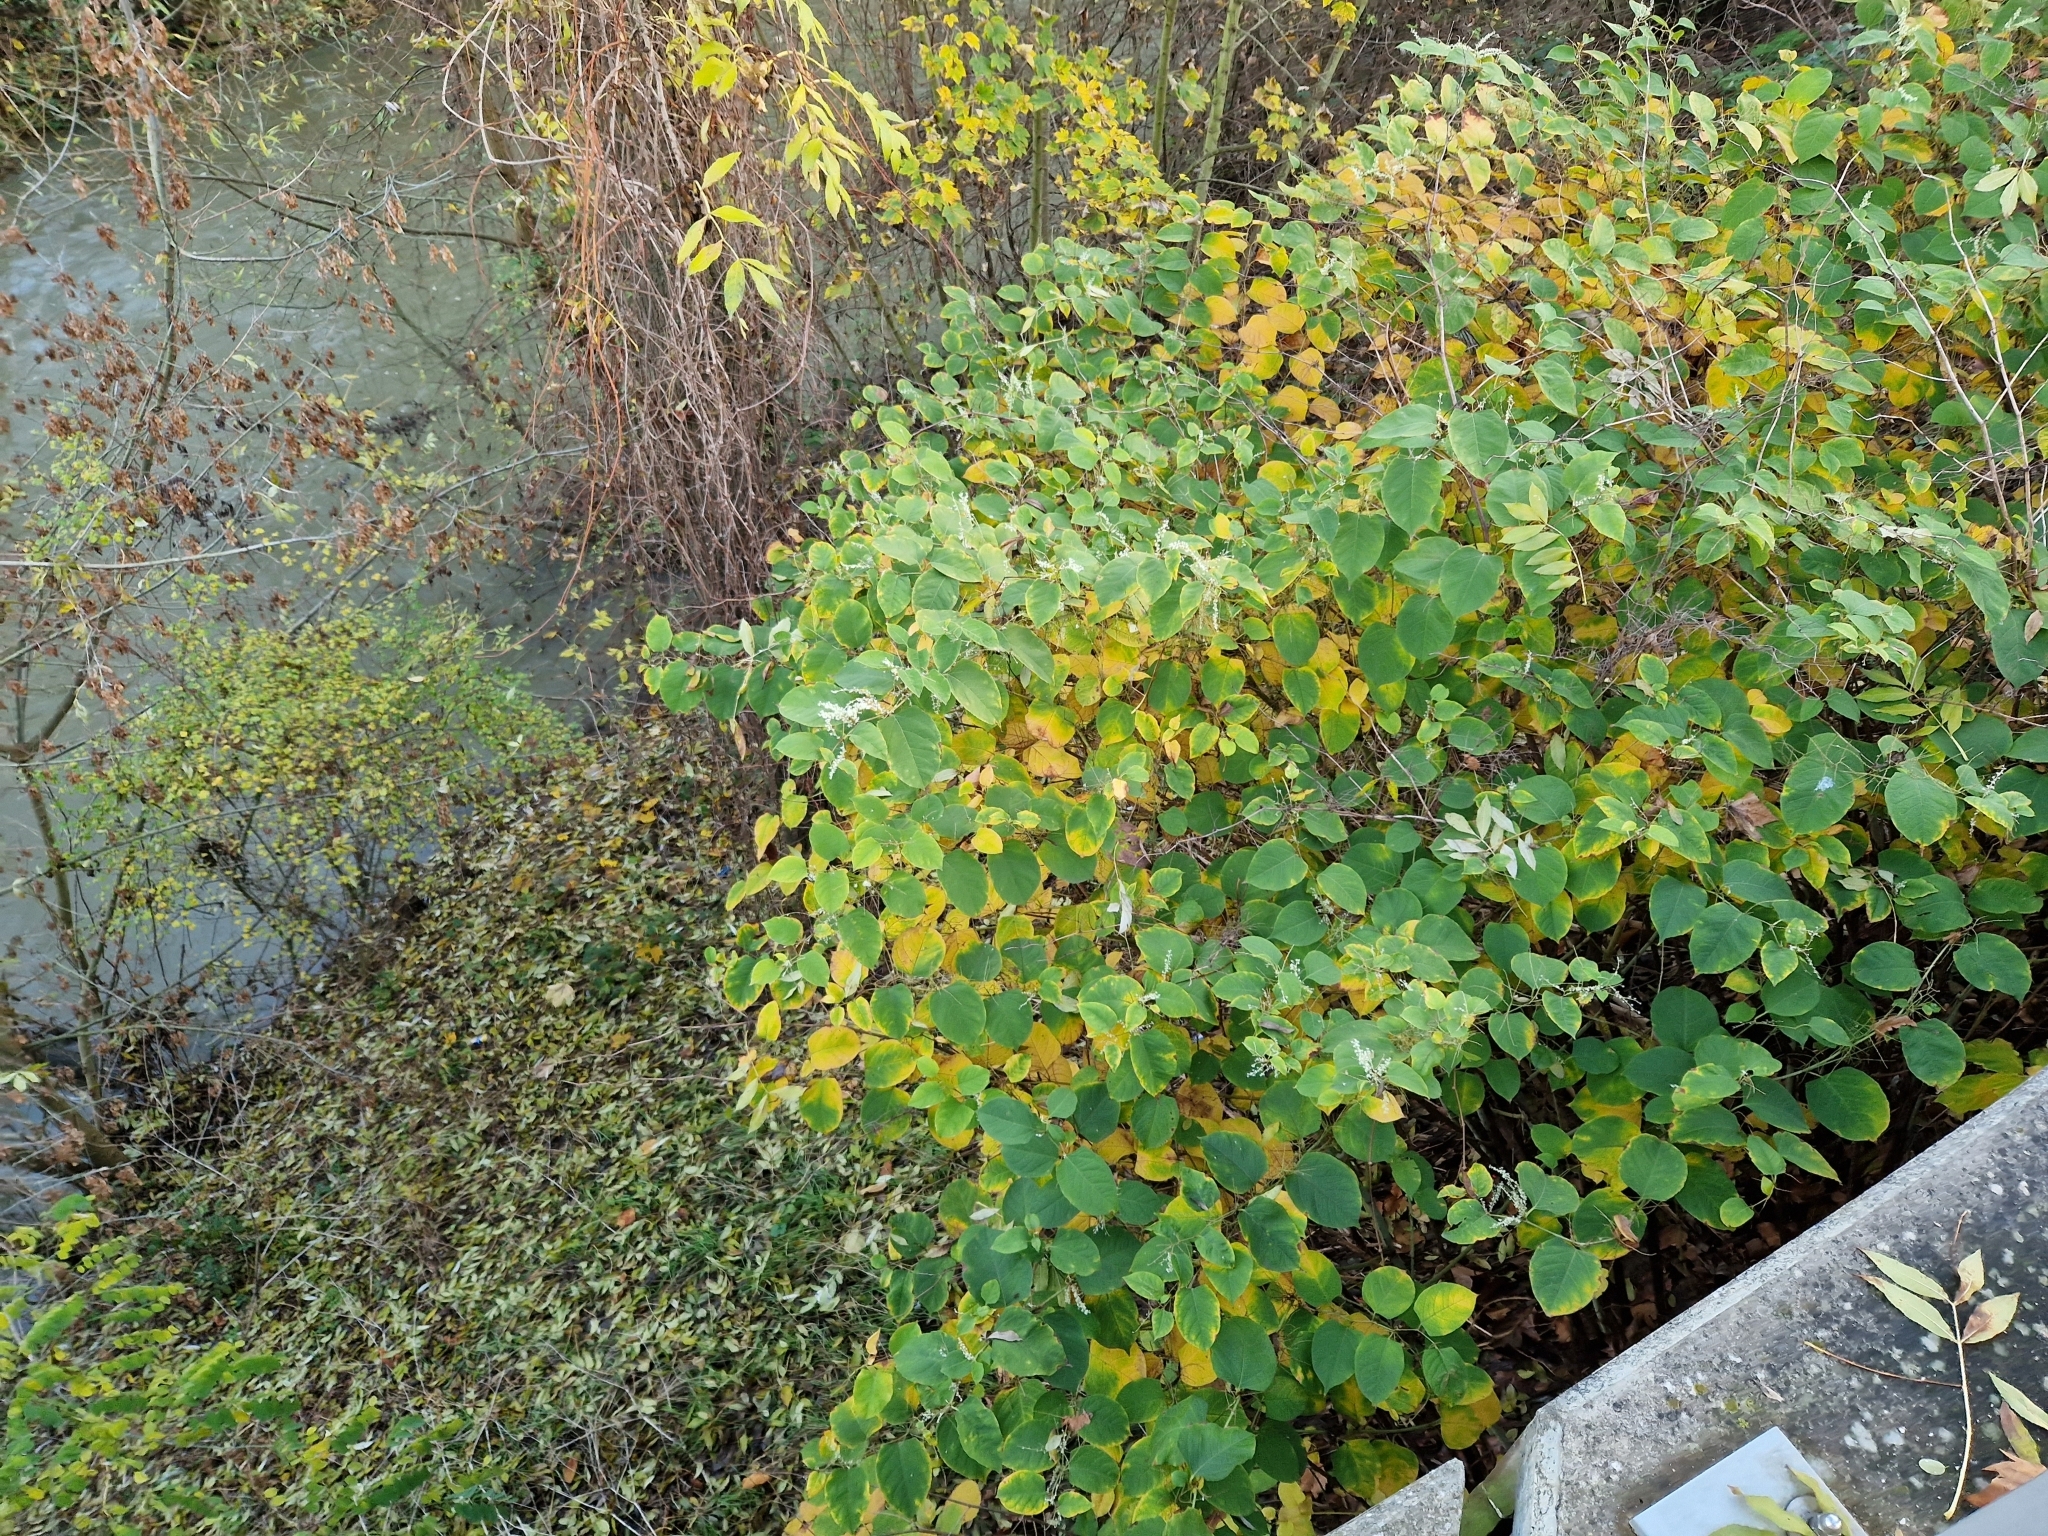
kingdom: Plantae
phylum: Tracheophyta
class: Magnoliopsida
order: Caryophyllales
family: Polygonaceae
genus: Reynoutria
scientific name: Reynoutria japonica
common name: Japanese knotweed
